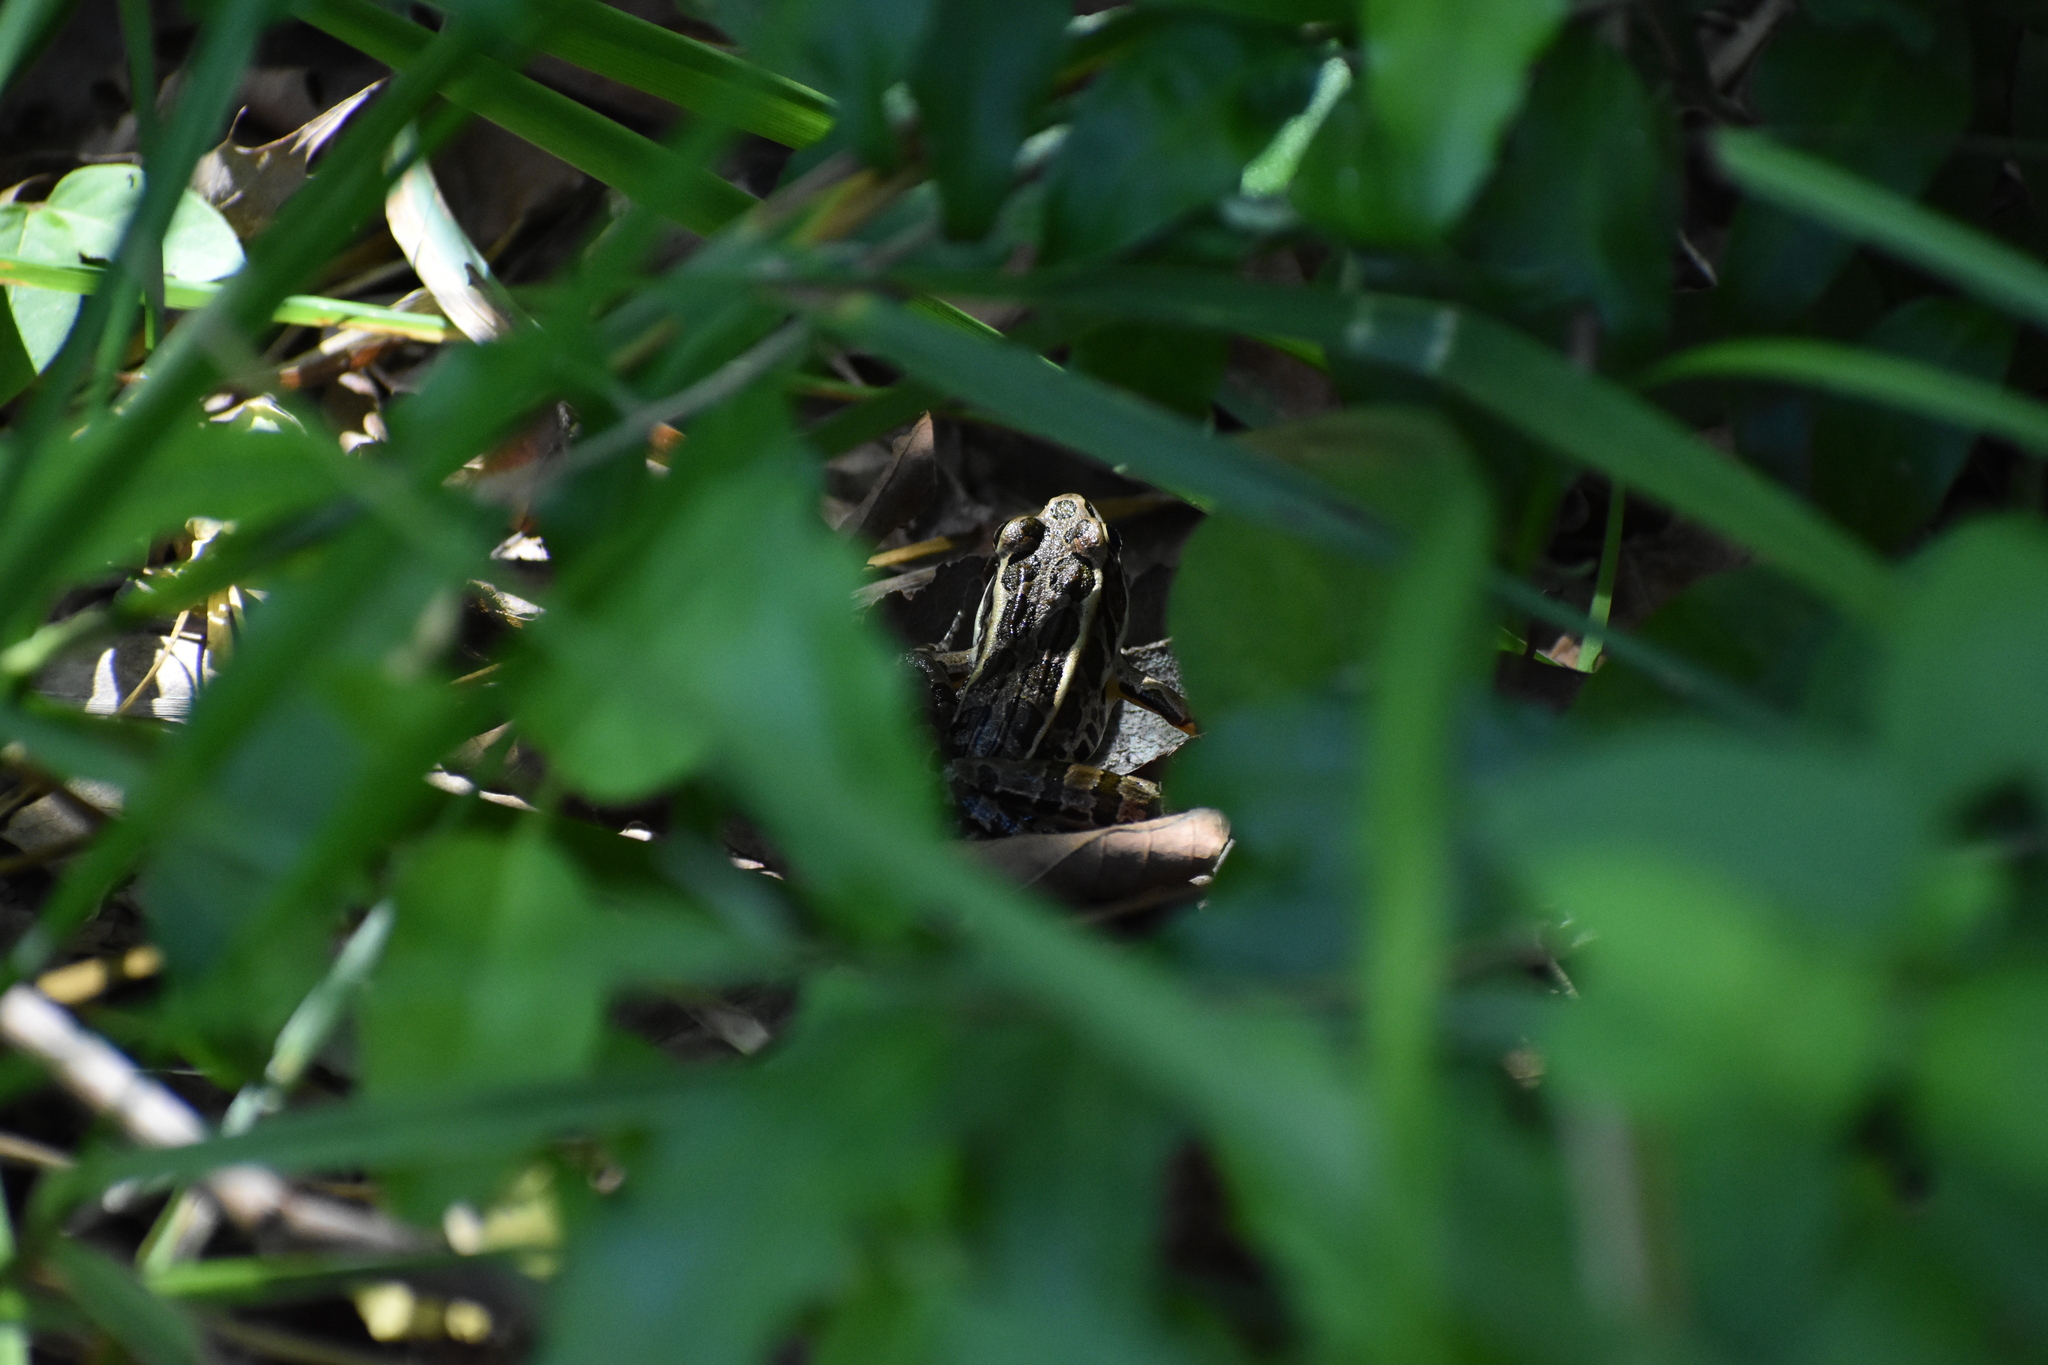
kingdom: Animalia
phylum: Chordata
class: Amphibia
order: Anura
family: Ranidae
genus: Lithobates
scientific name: Lithobates palustris
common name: Pickerel frog
